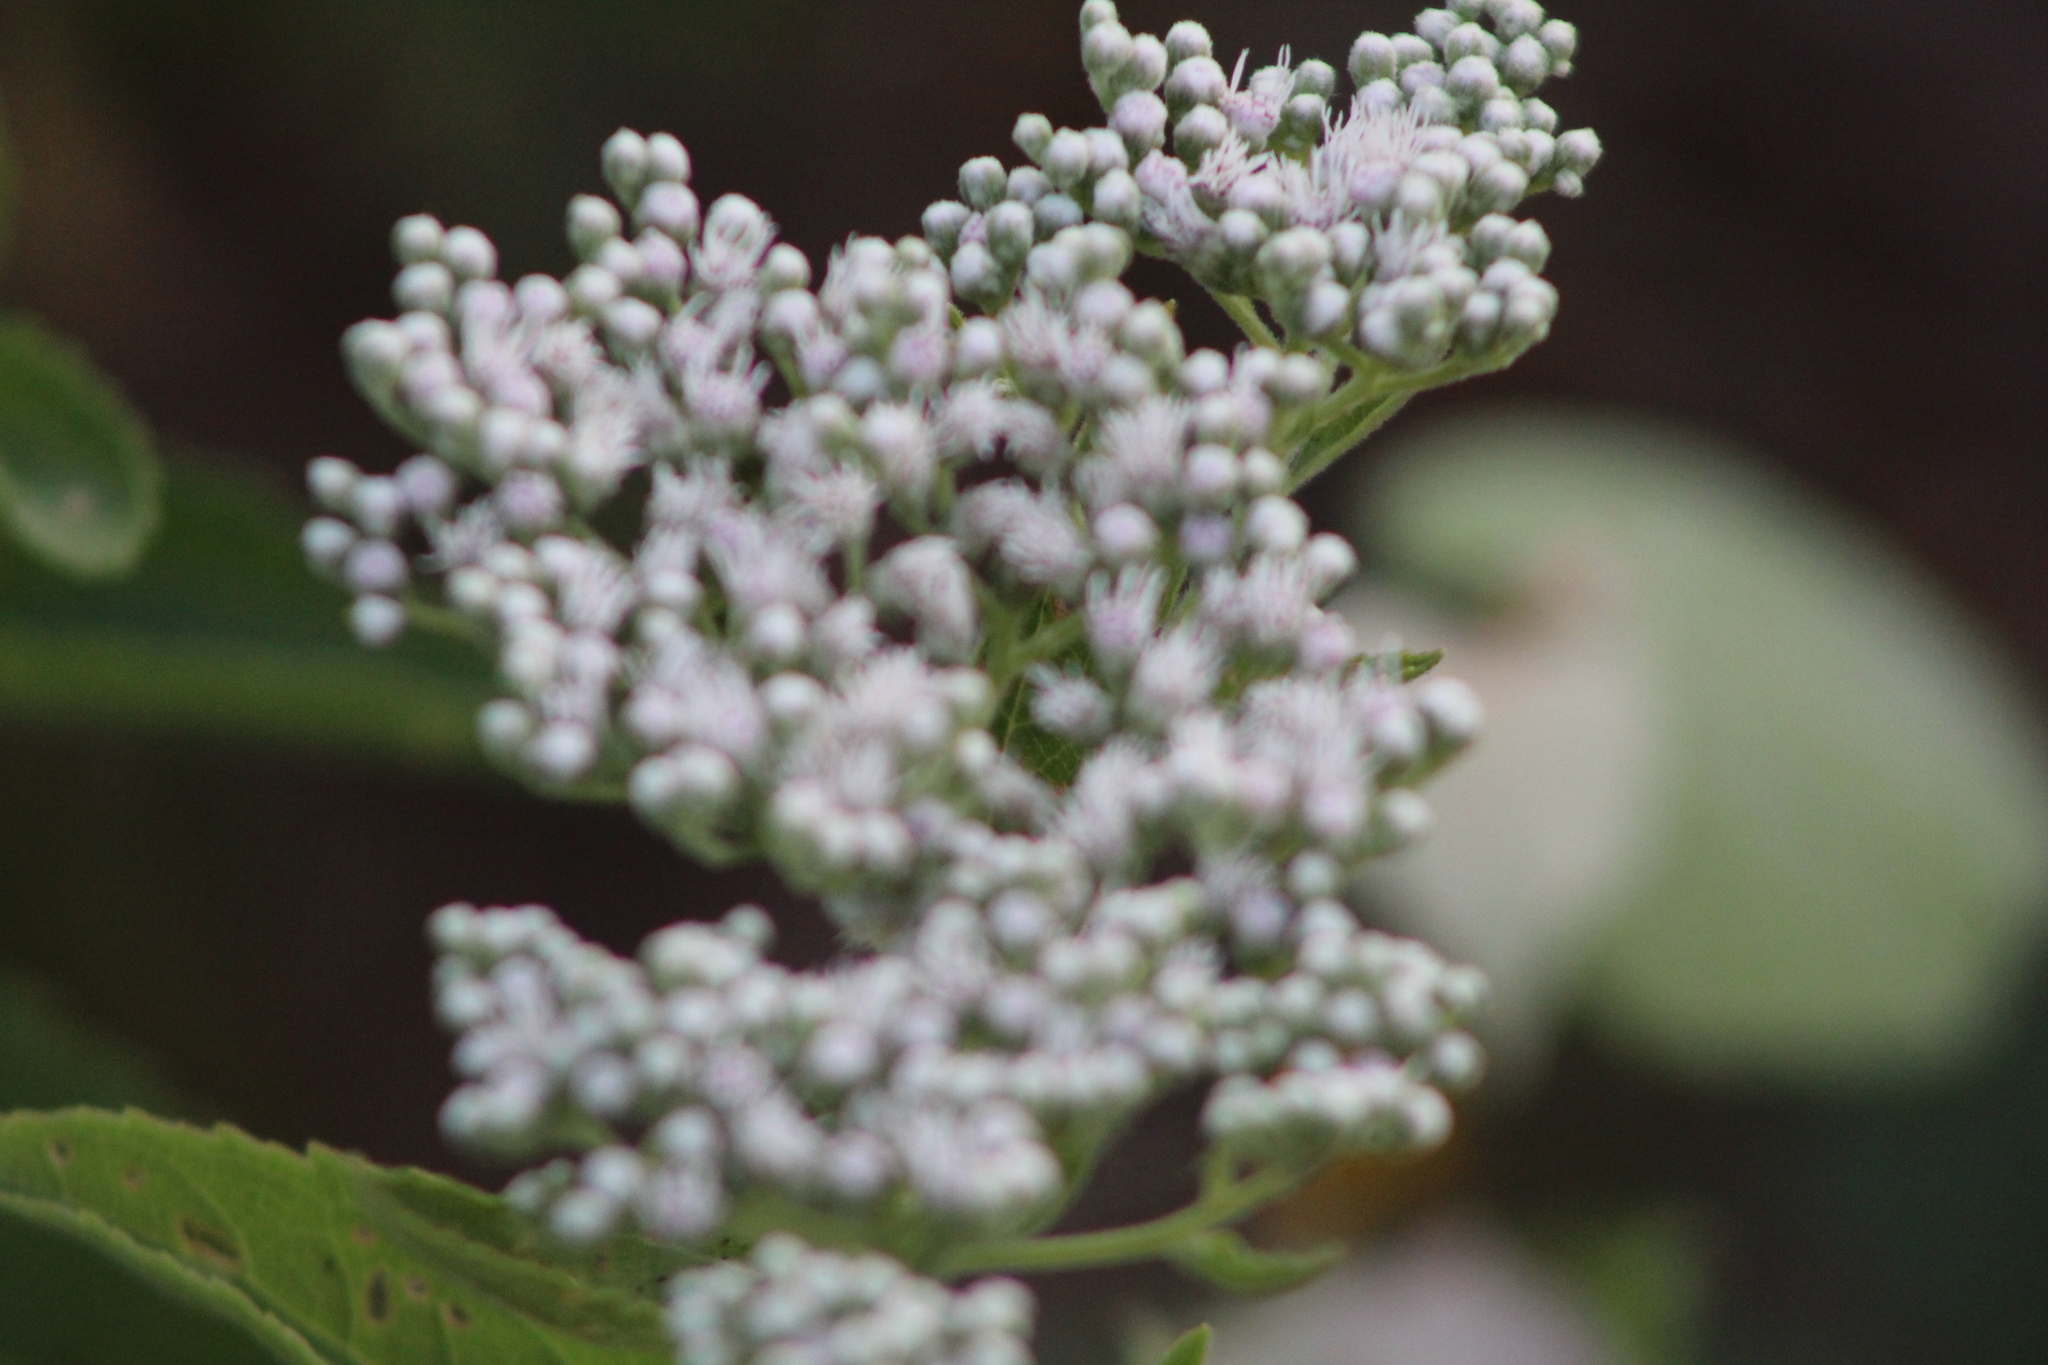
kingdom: Plantae
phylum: Tracheophyta
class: Magnoliopsida
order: Asterales
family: Asteraceae
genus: Eupatorium
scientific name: Eupatorium serotinum
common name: Late boneset
